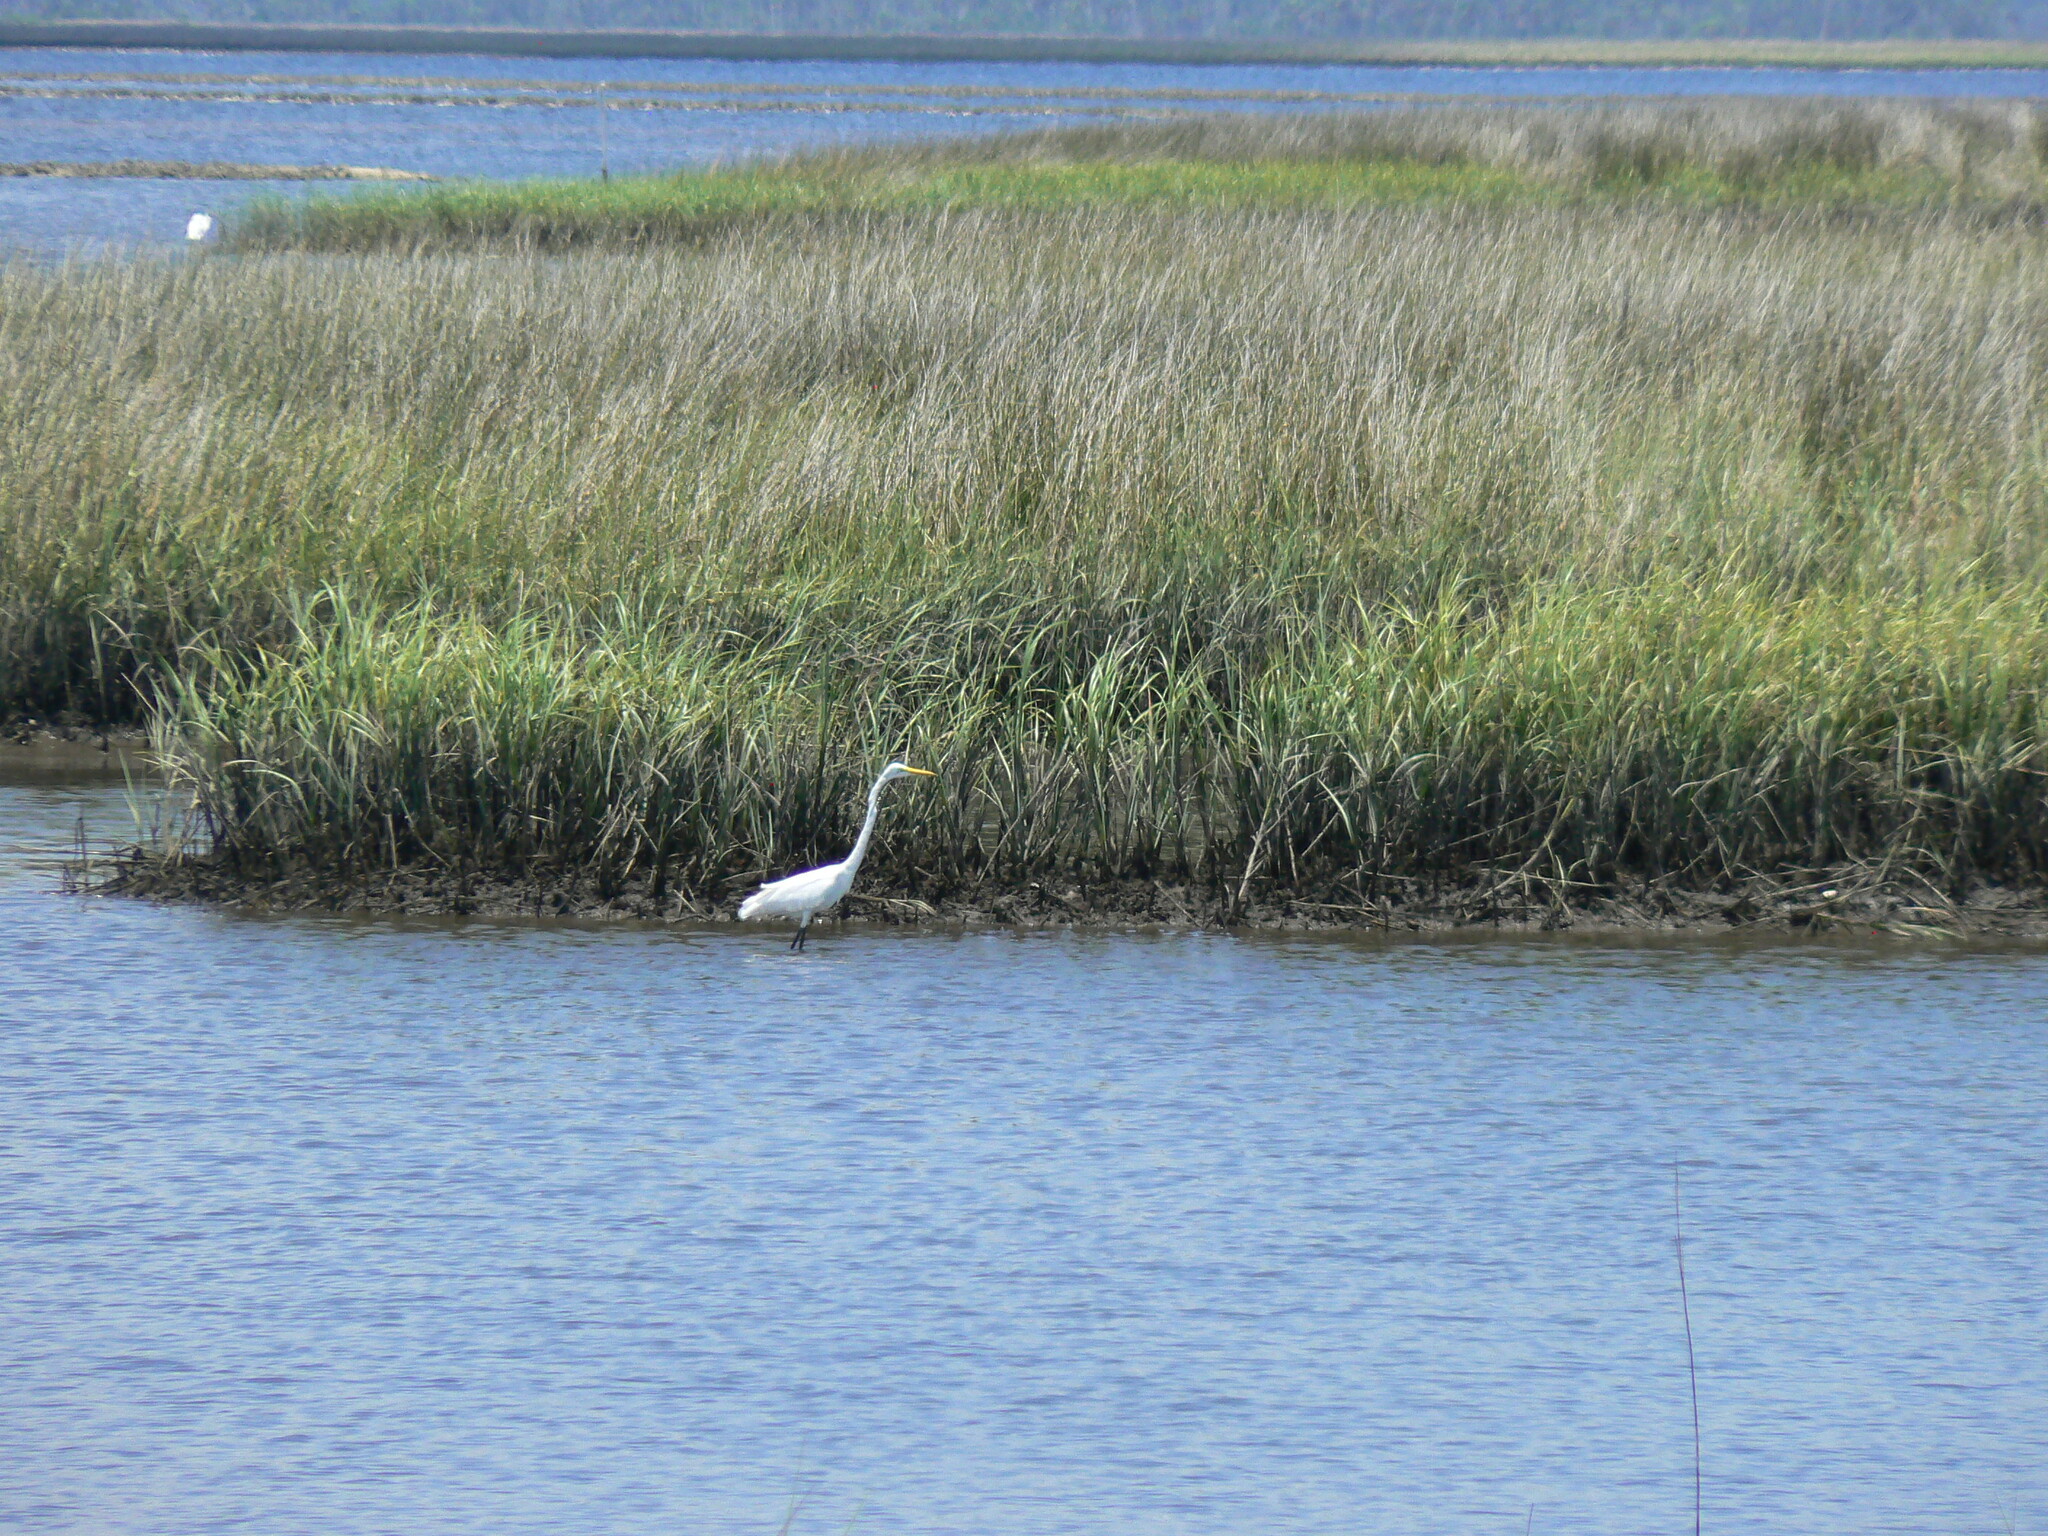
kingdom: Animalia
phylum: Chordata
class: Aves
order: Pelecaniformes
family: Ardeidae
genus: Ardea
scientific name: Ardea alba
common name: Great egret
